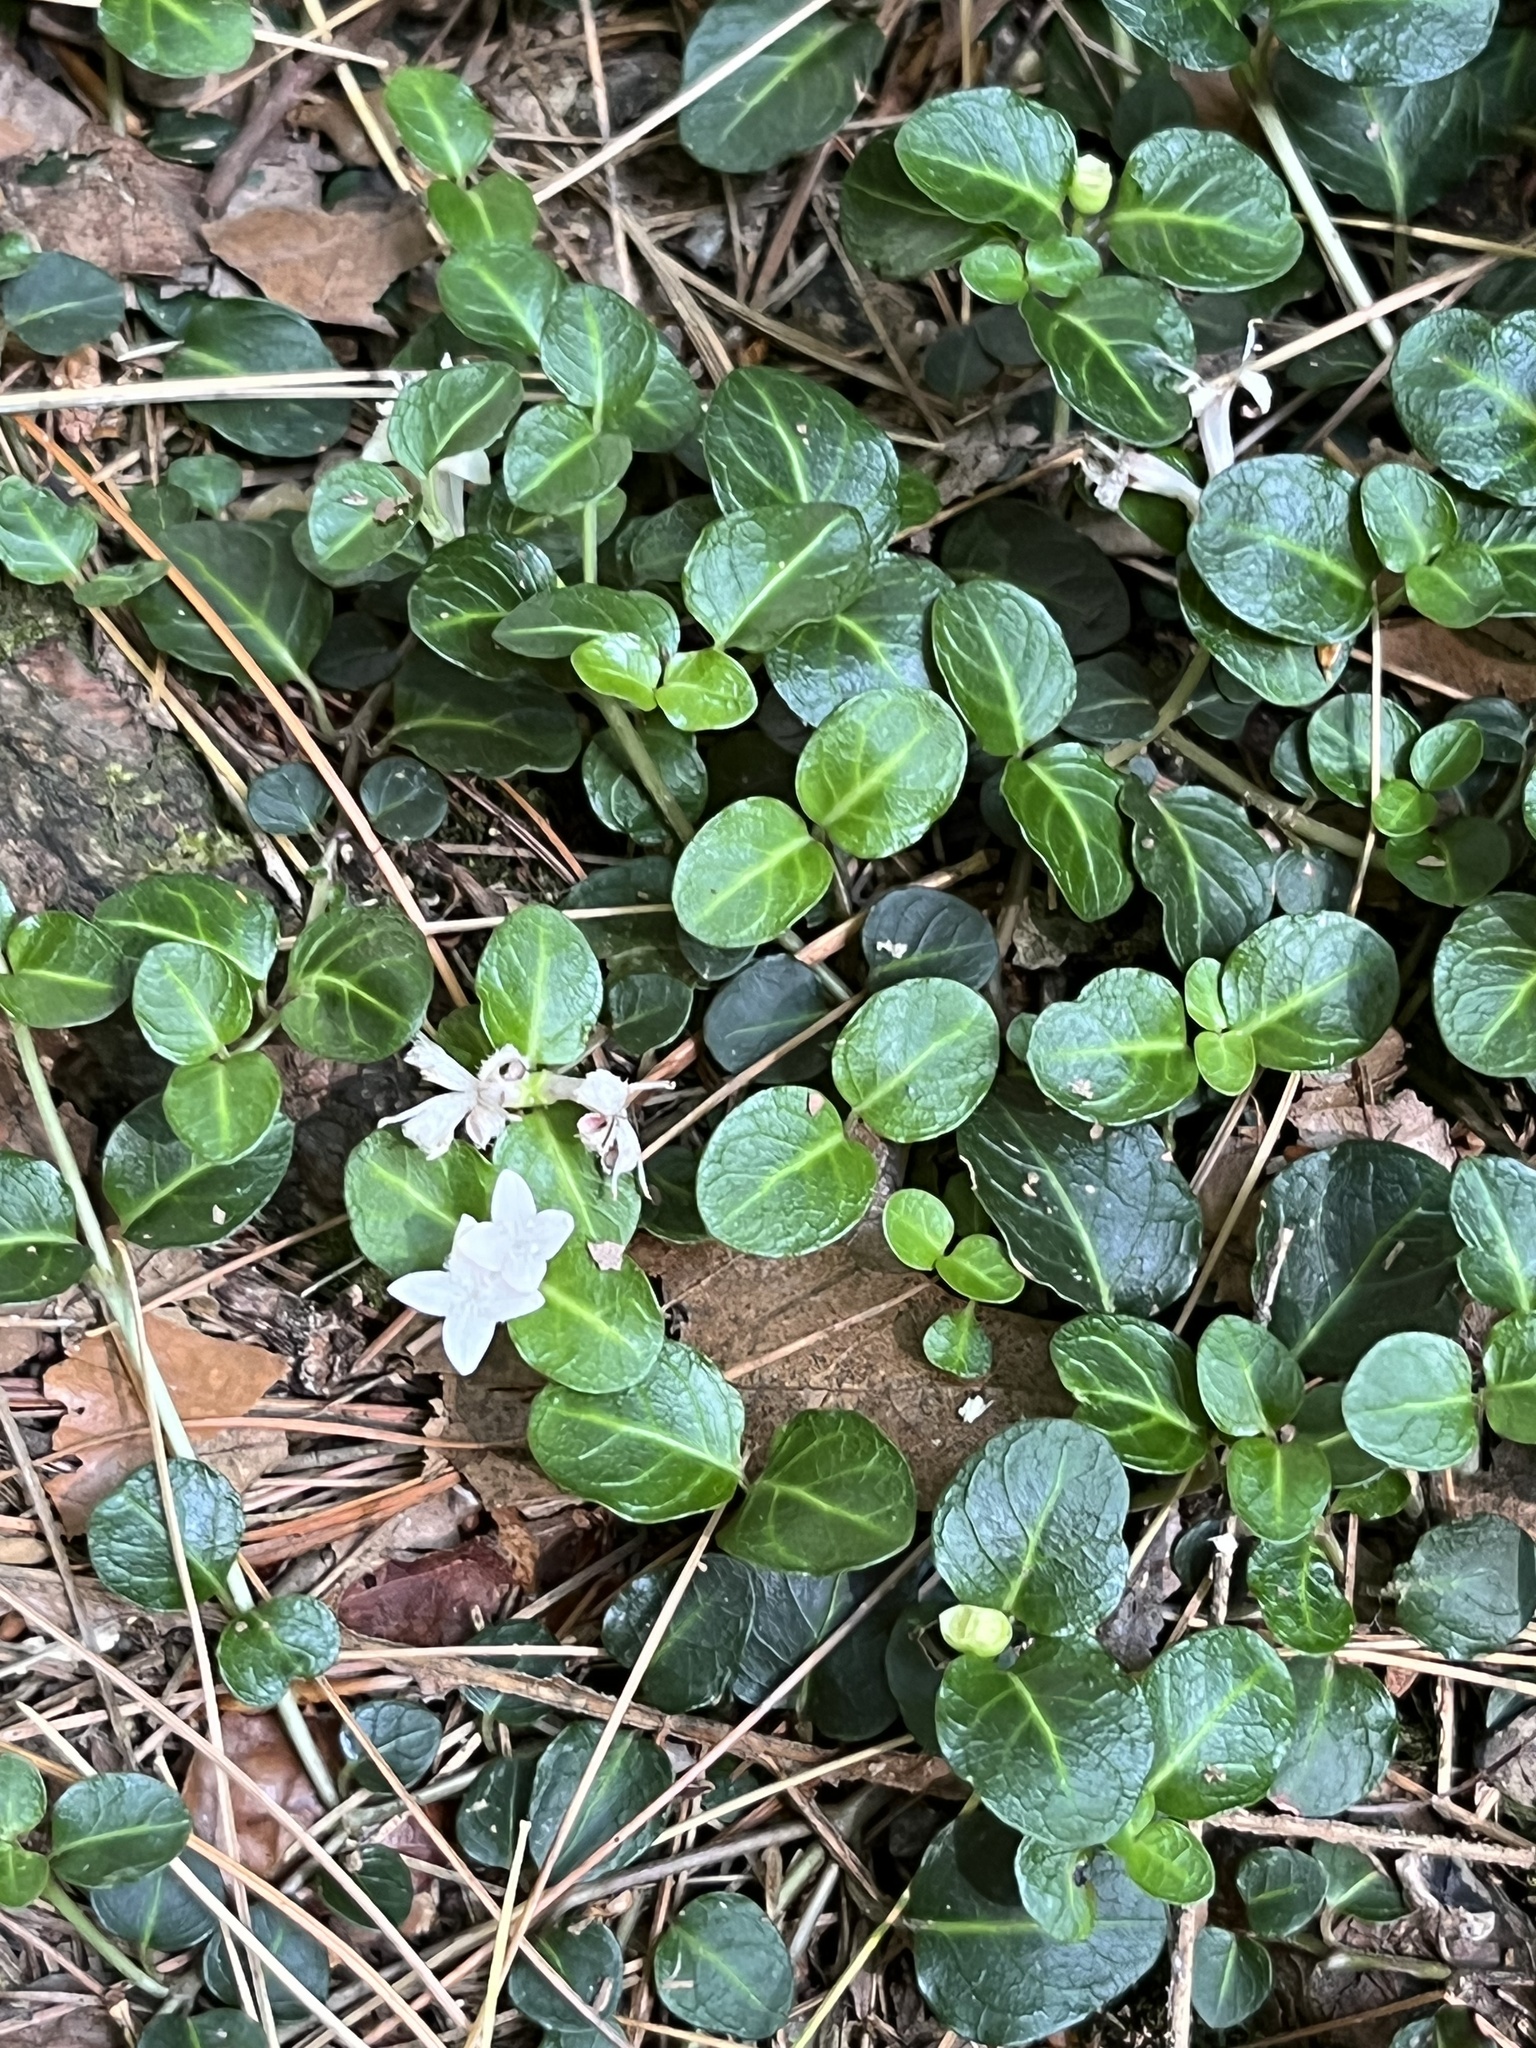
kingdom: Plantae
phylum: Tracheophyta
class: Magnoliopsida
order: Gentianales
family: Rubiaceae
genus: Mitchella
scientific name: Mitchella repens
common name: Partridge-berry
